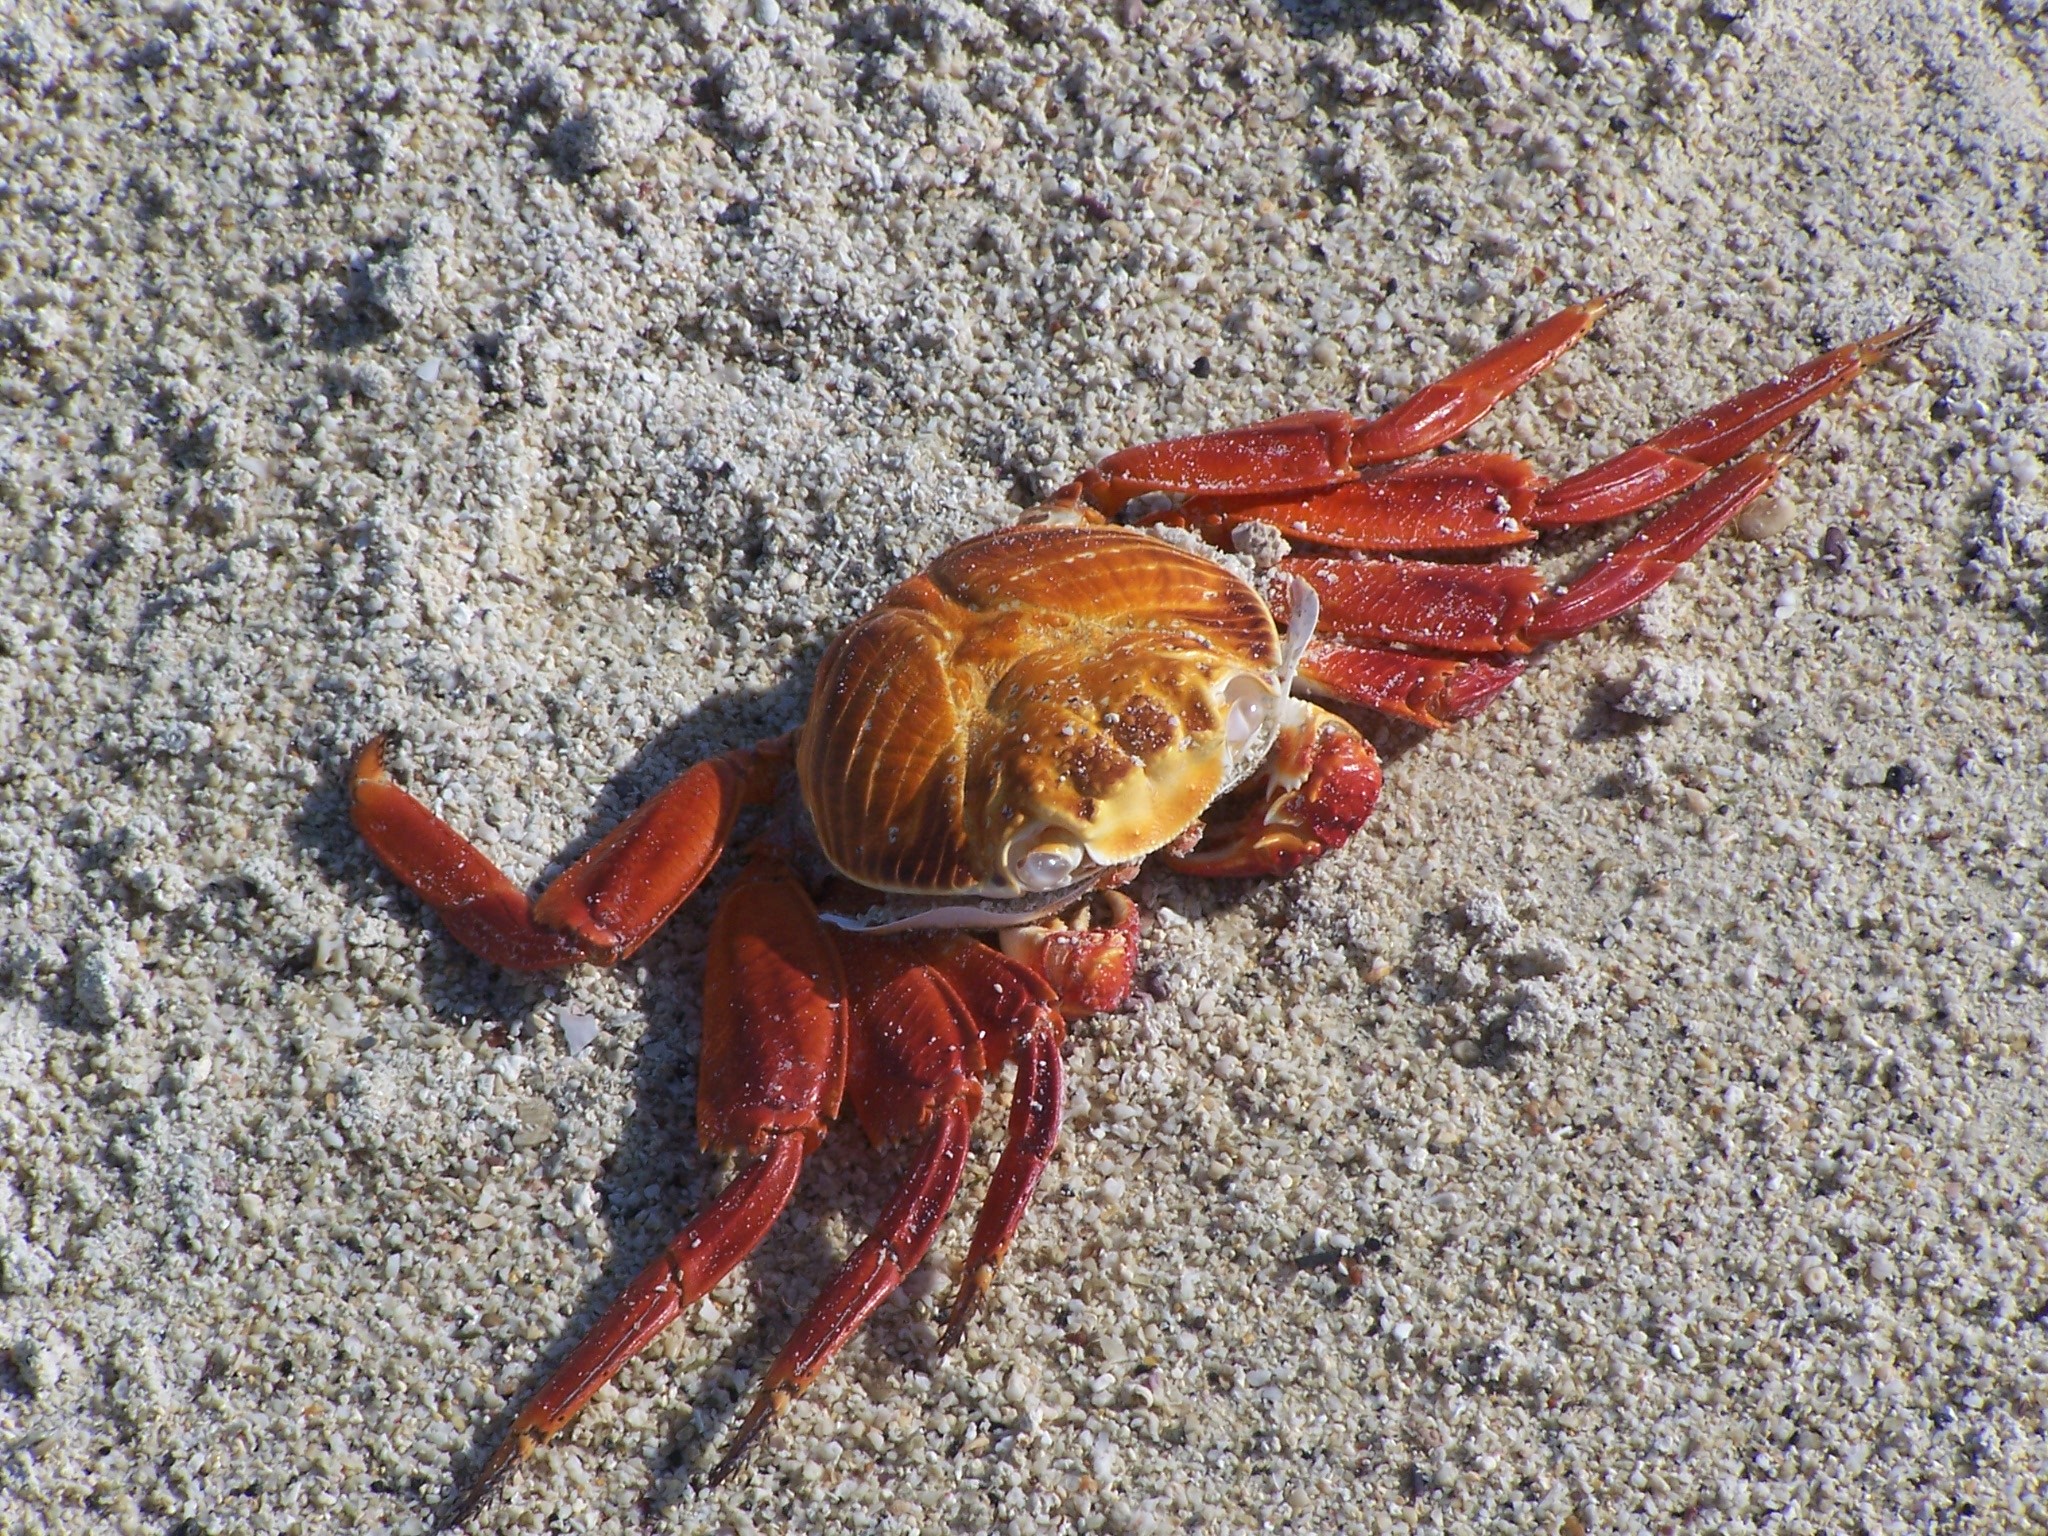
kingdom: Animalia
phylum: Arthropoda
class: Malacostraca
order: Decapoda
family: Grapsidae
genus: Grapsus
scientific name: Grapsus grapsus
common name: Sally lightfoot
